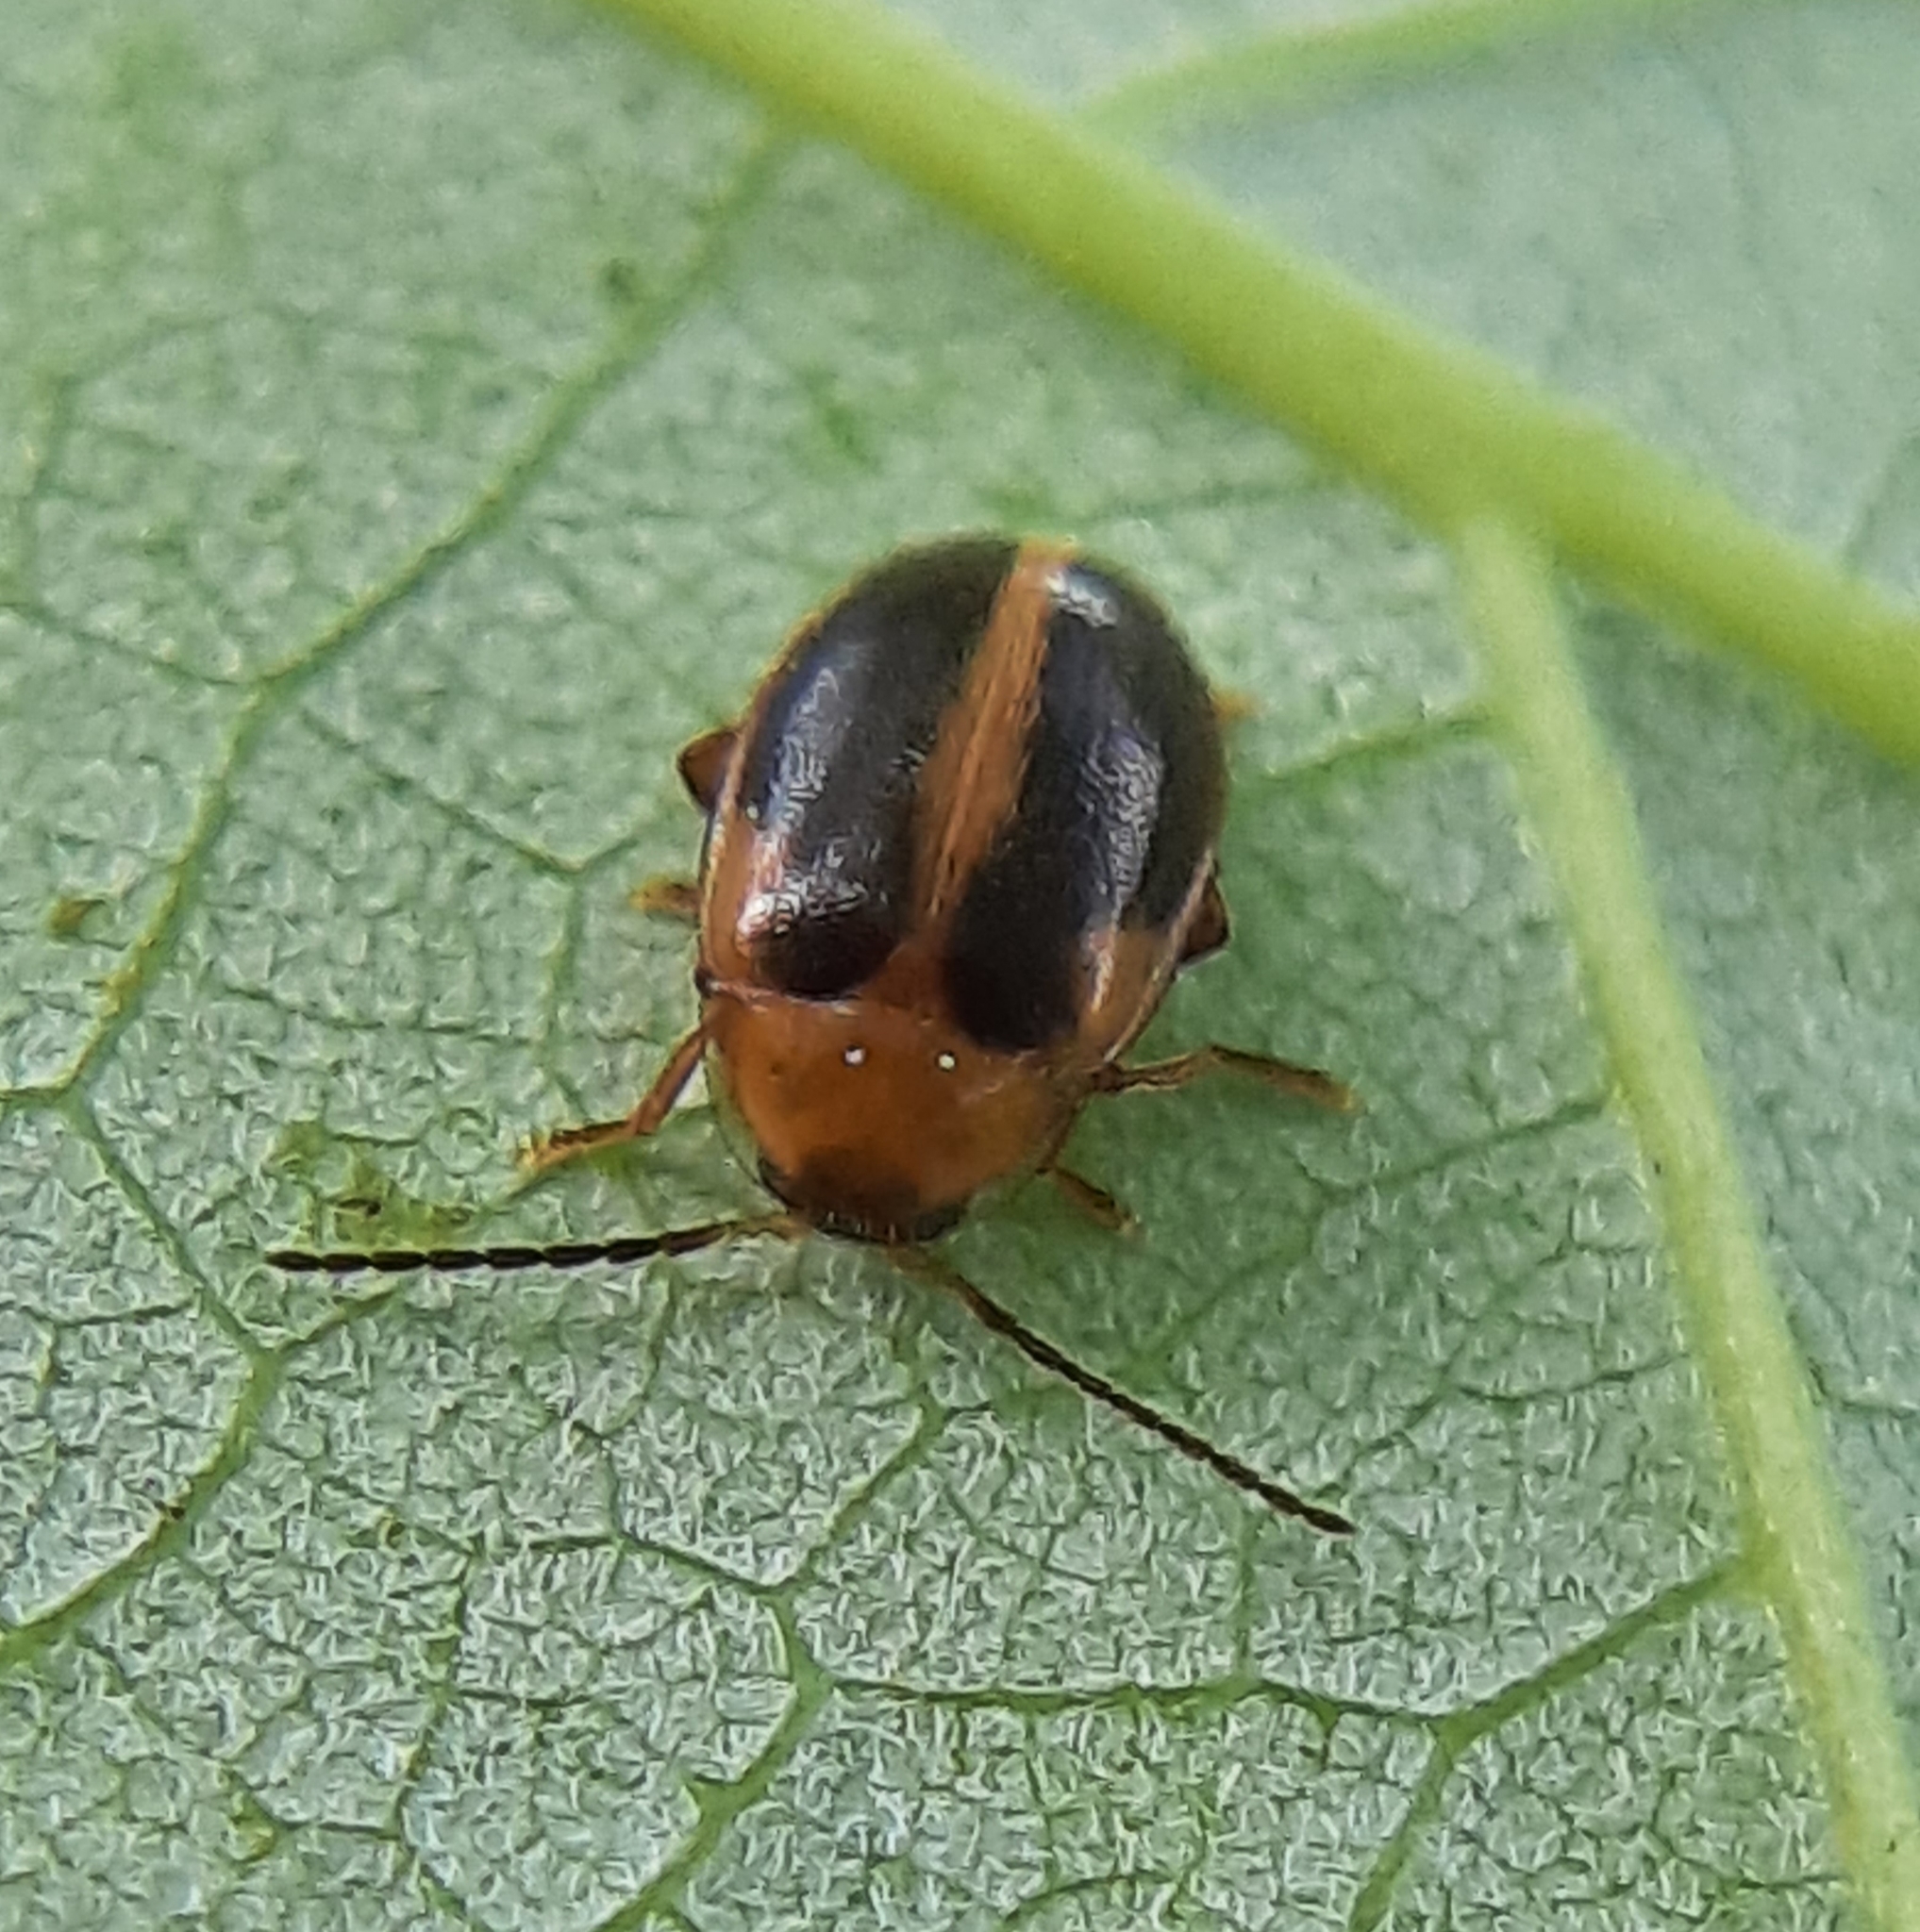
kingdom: Animalia
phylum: Arthropoda
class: Insecta
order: Coleoptera
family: Scirtidae
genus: Sacodes
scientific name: Sacodes pulchella
